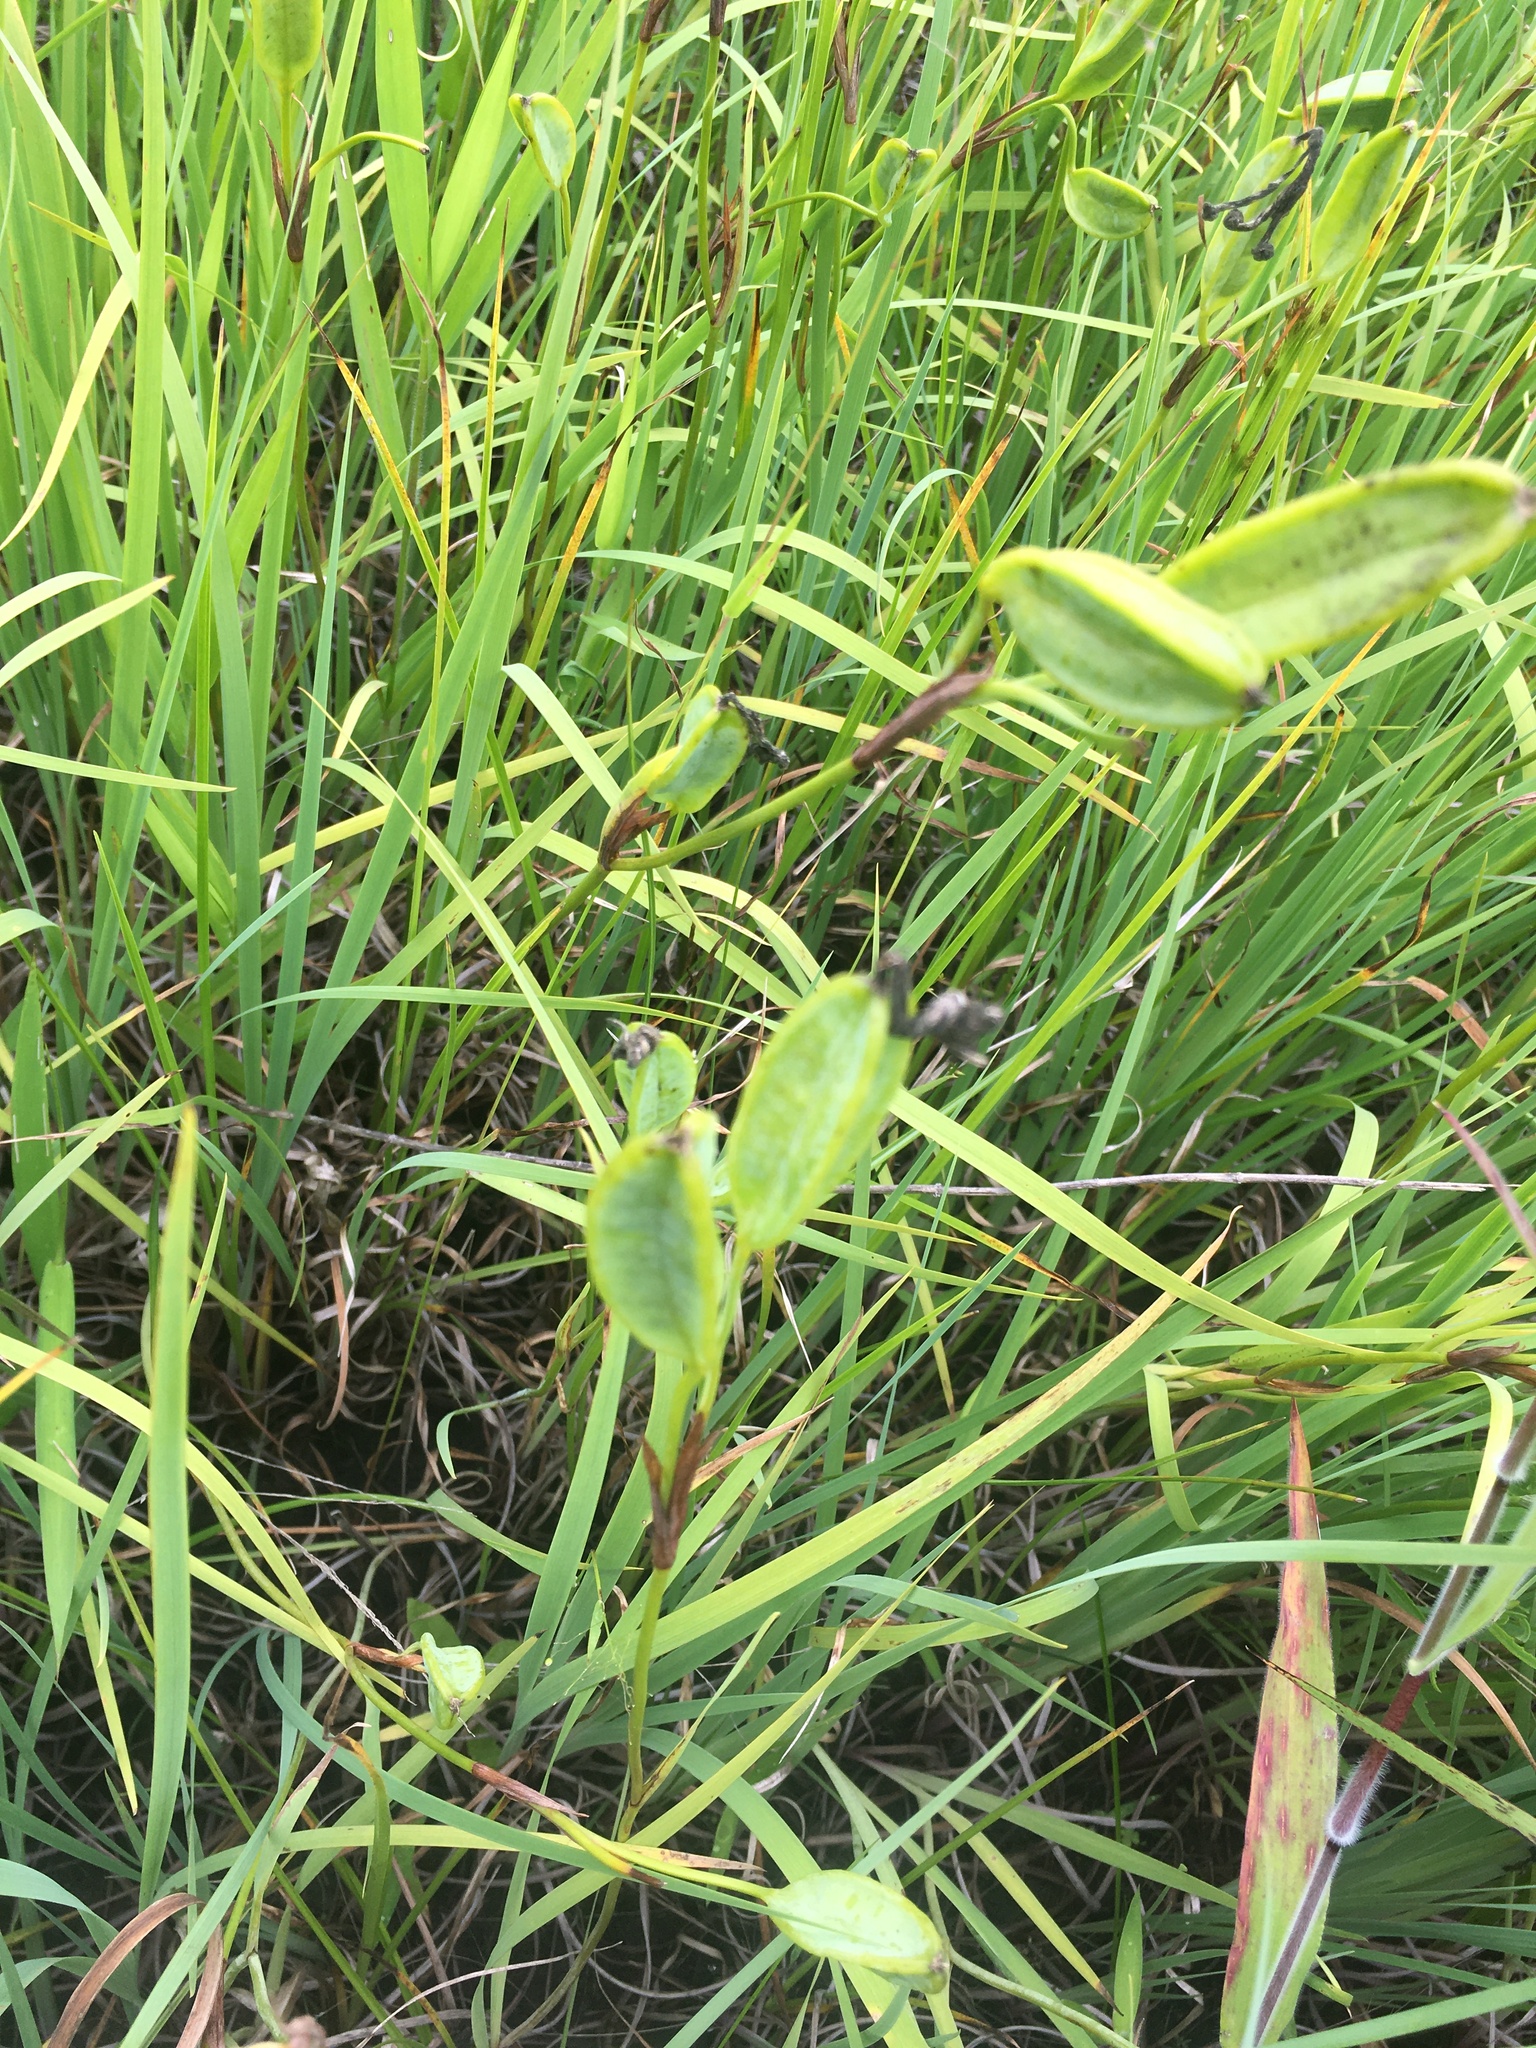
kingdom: Plantae
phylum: Tracheophyta
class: Liliopsida
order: Asparagales
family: Iridaceae
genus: Iris
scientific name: Iris prismatica
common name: Slender blue flag
